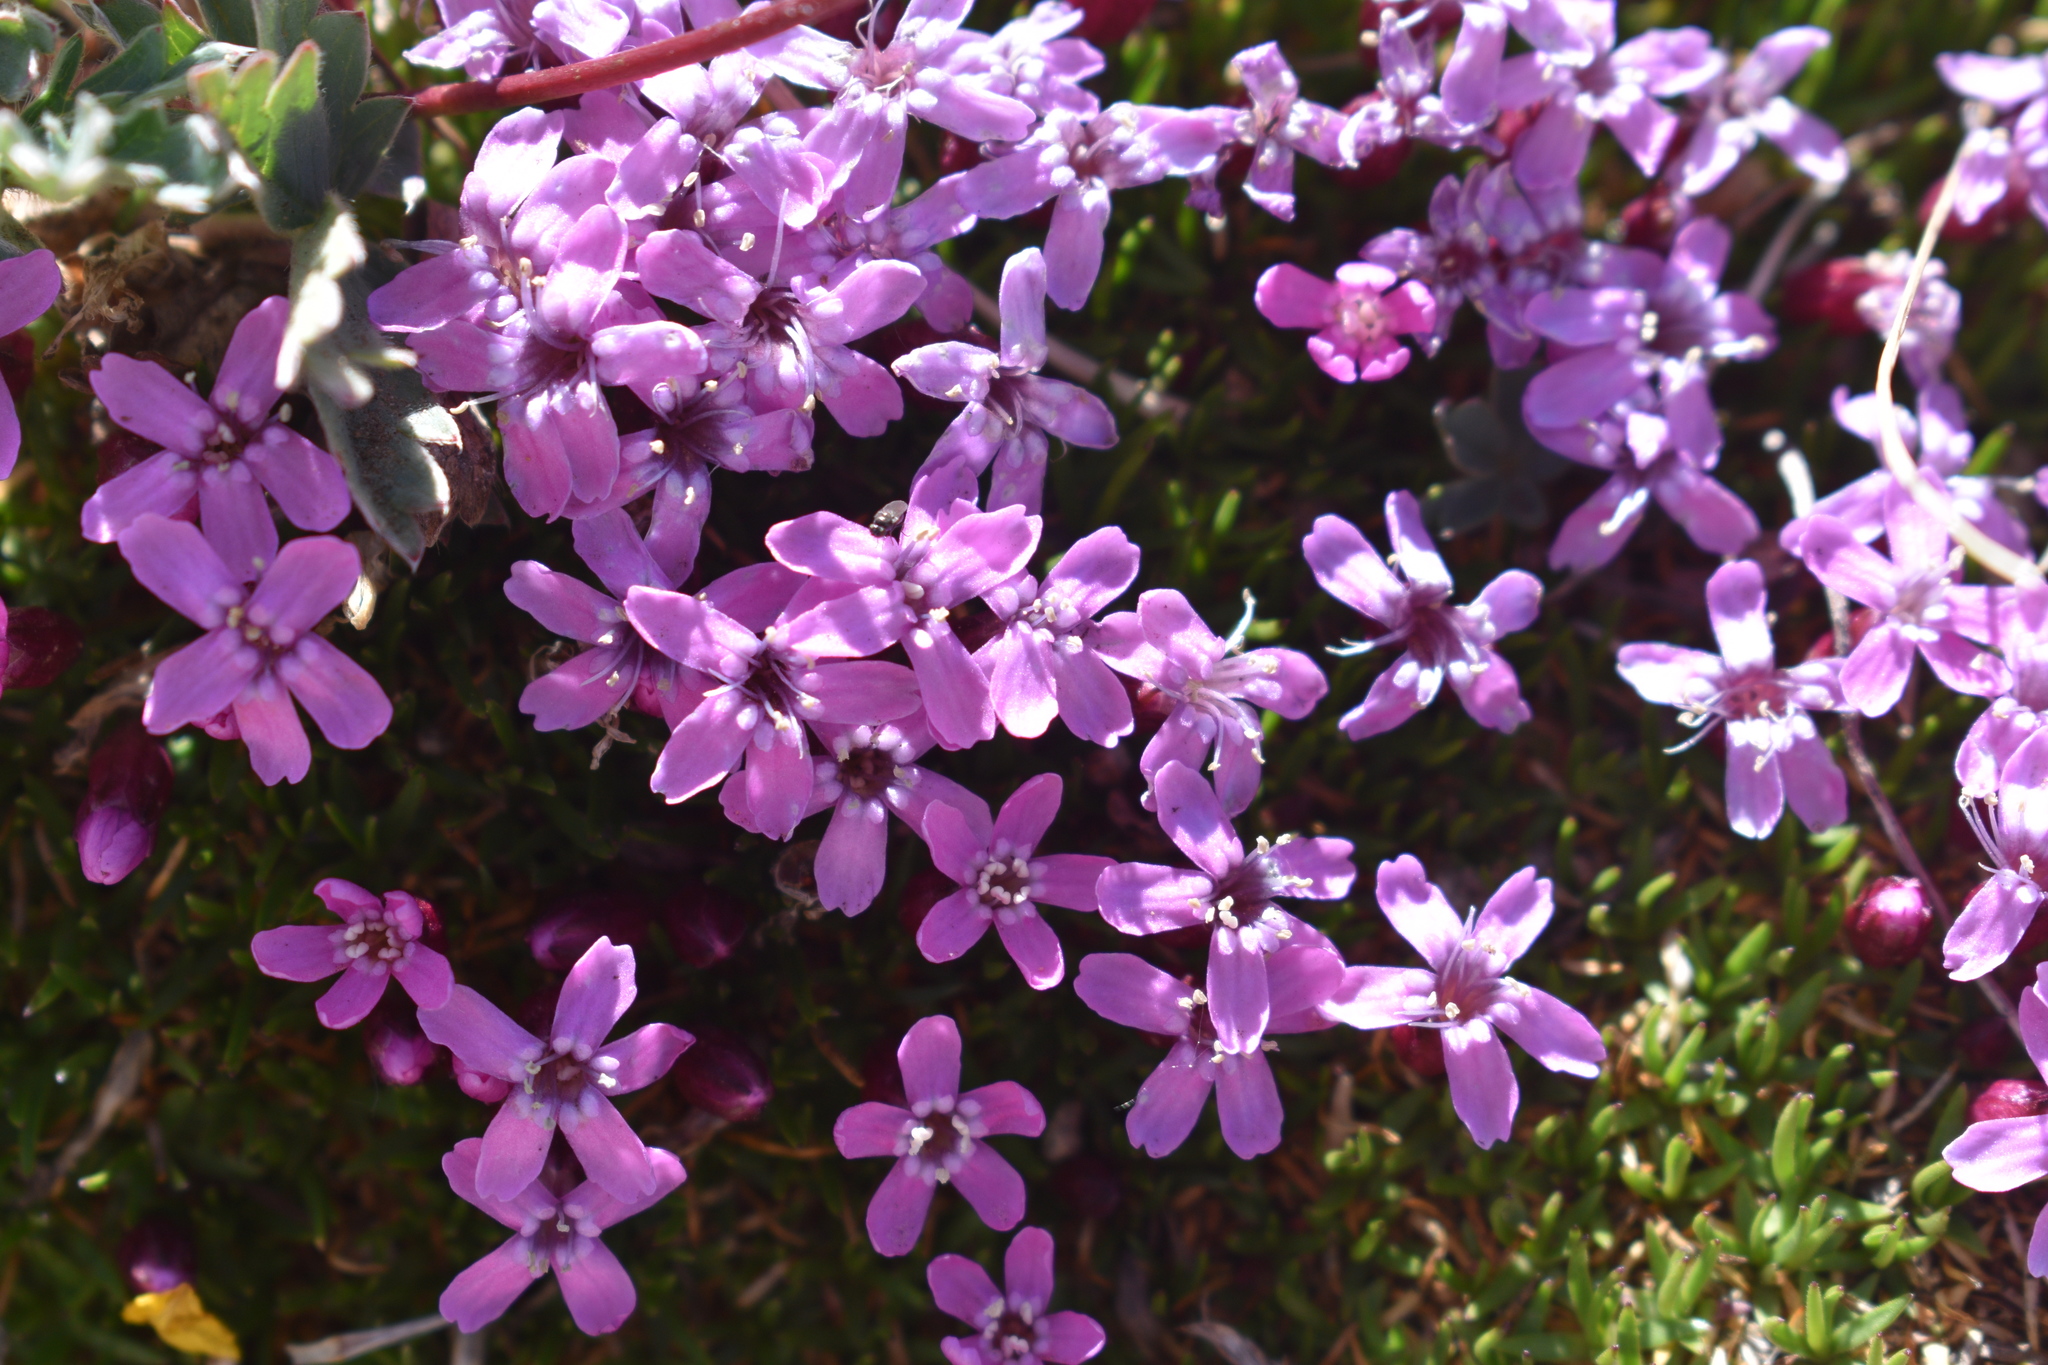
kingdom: Plantae
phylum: Tracheophyta
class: Magnoliopsida
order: Caryophyllales
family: Caryophyllaceae
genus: Silene
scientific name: Silene acaulis
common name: Moss campion
